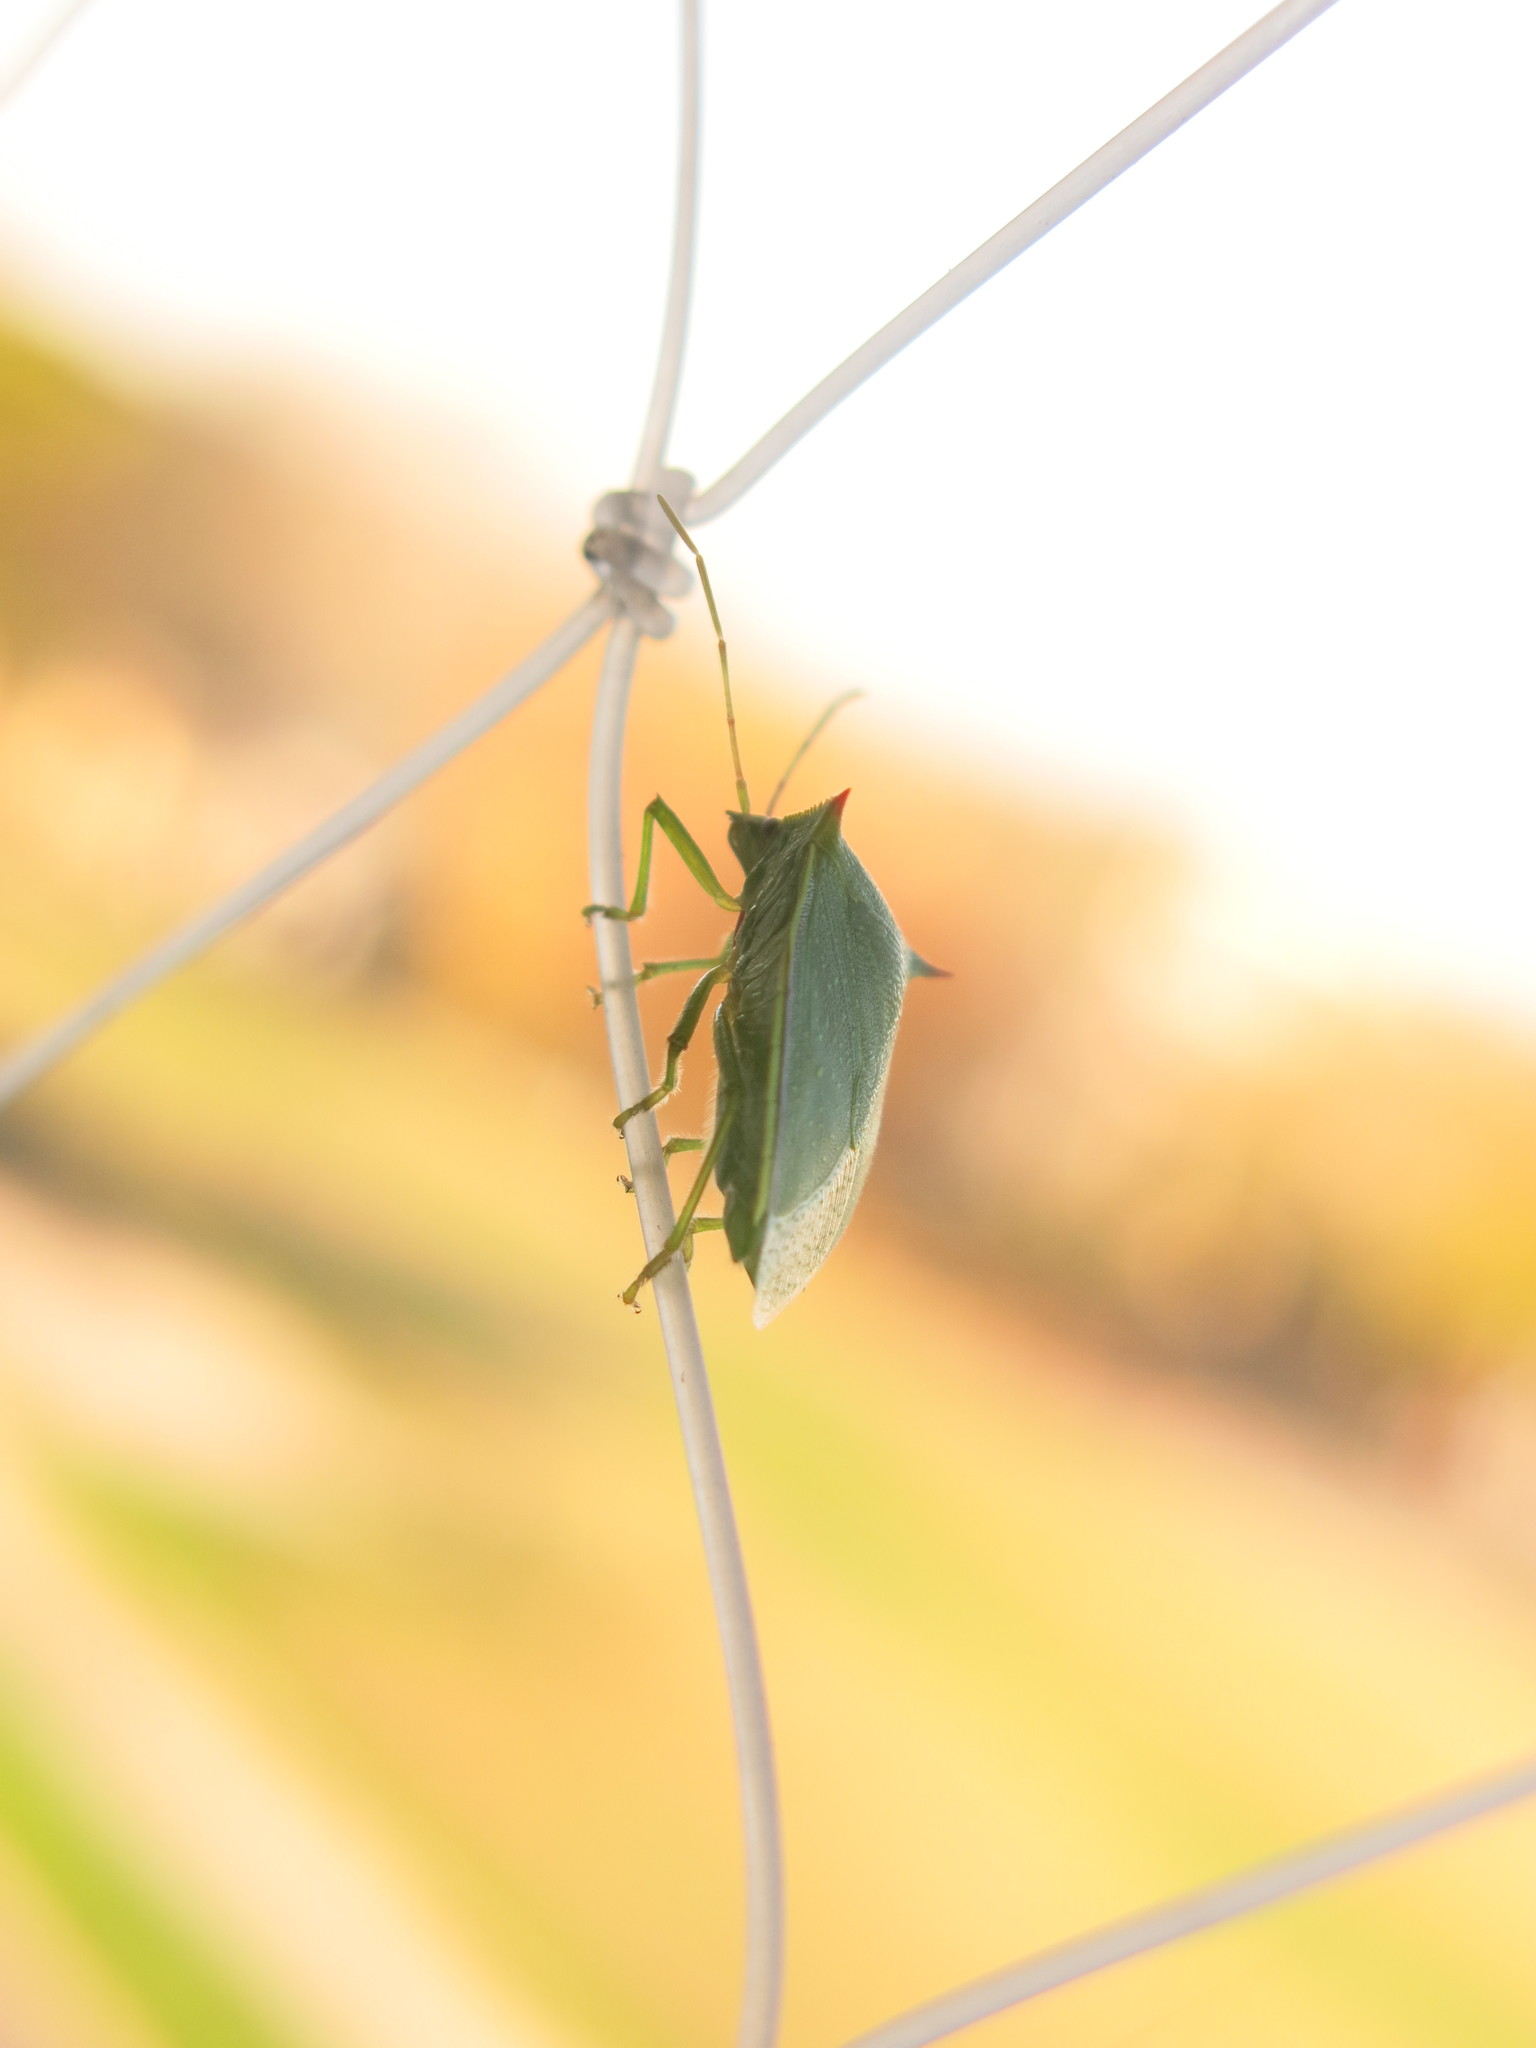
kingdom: Animalia
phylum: Arthropoda
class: Insecta
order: Hemiptera
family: Pentatomidae
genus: Loxa
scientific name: Loxa
